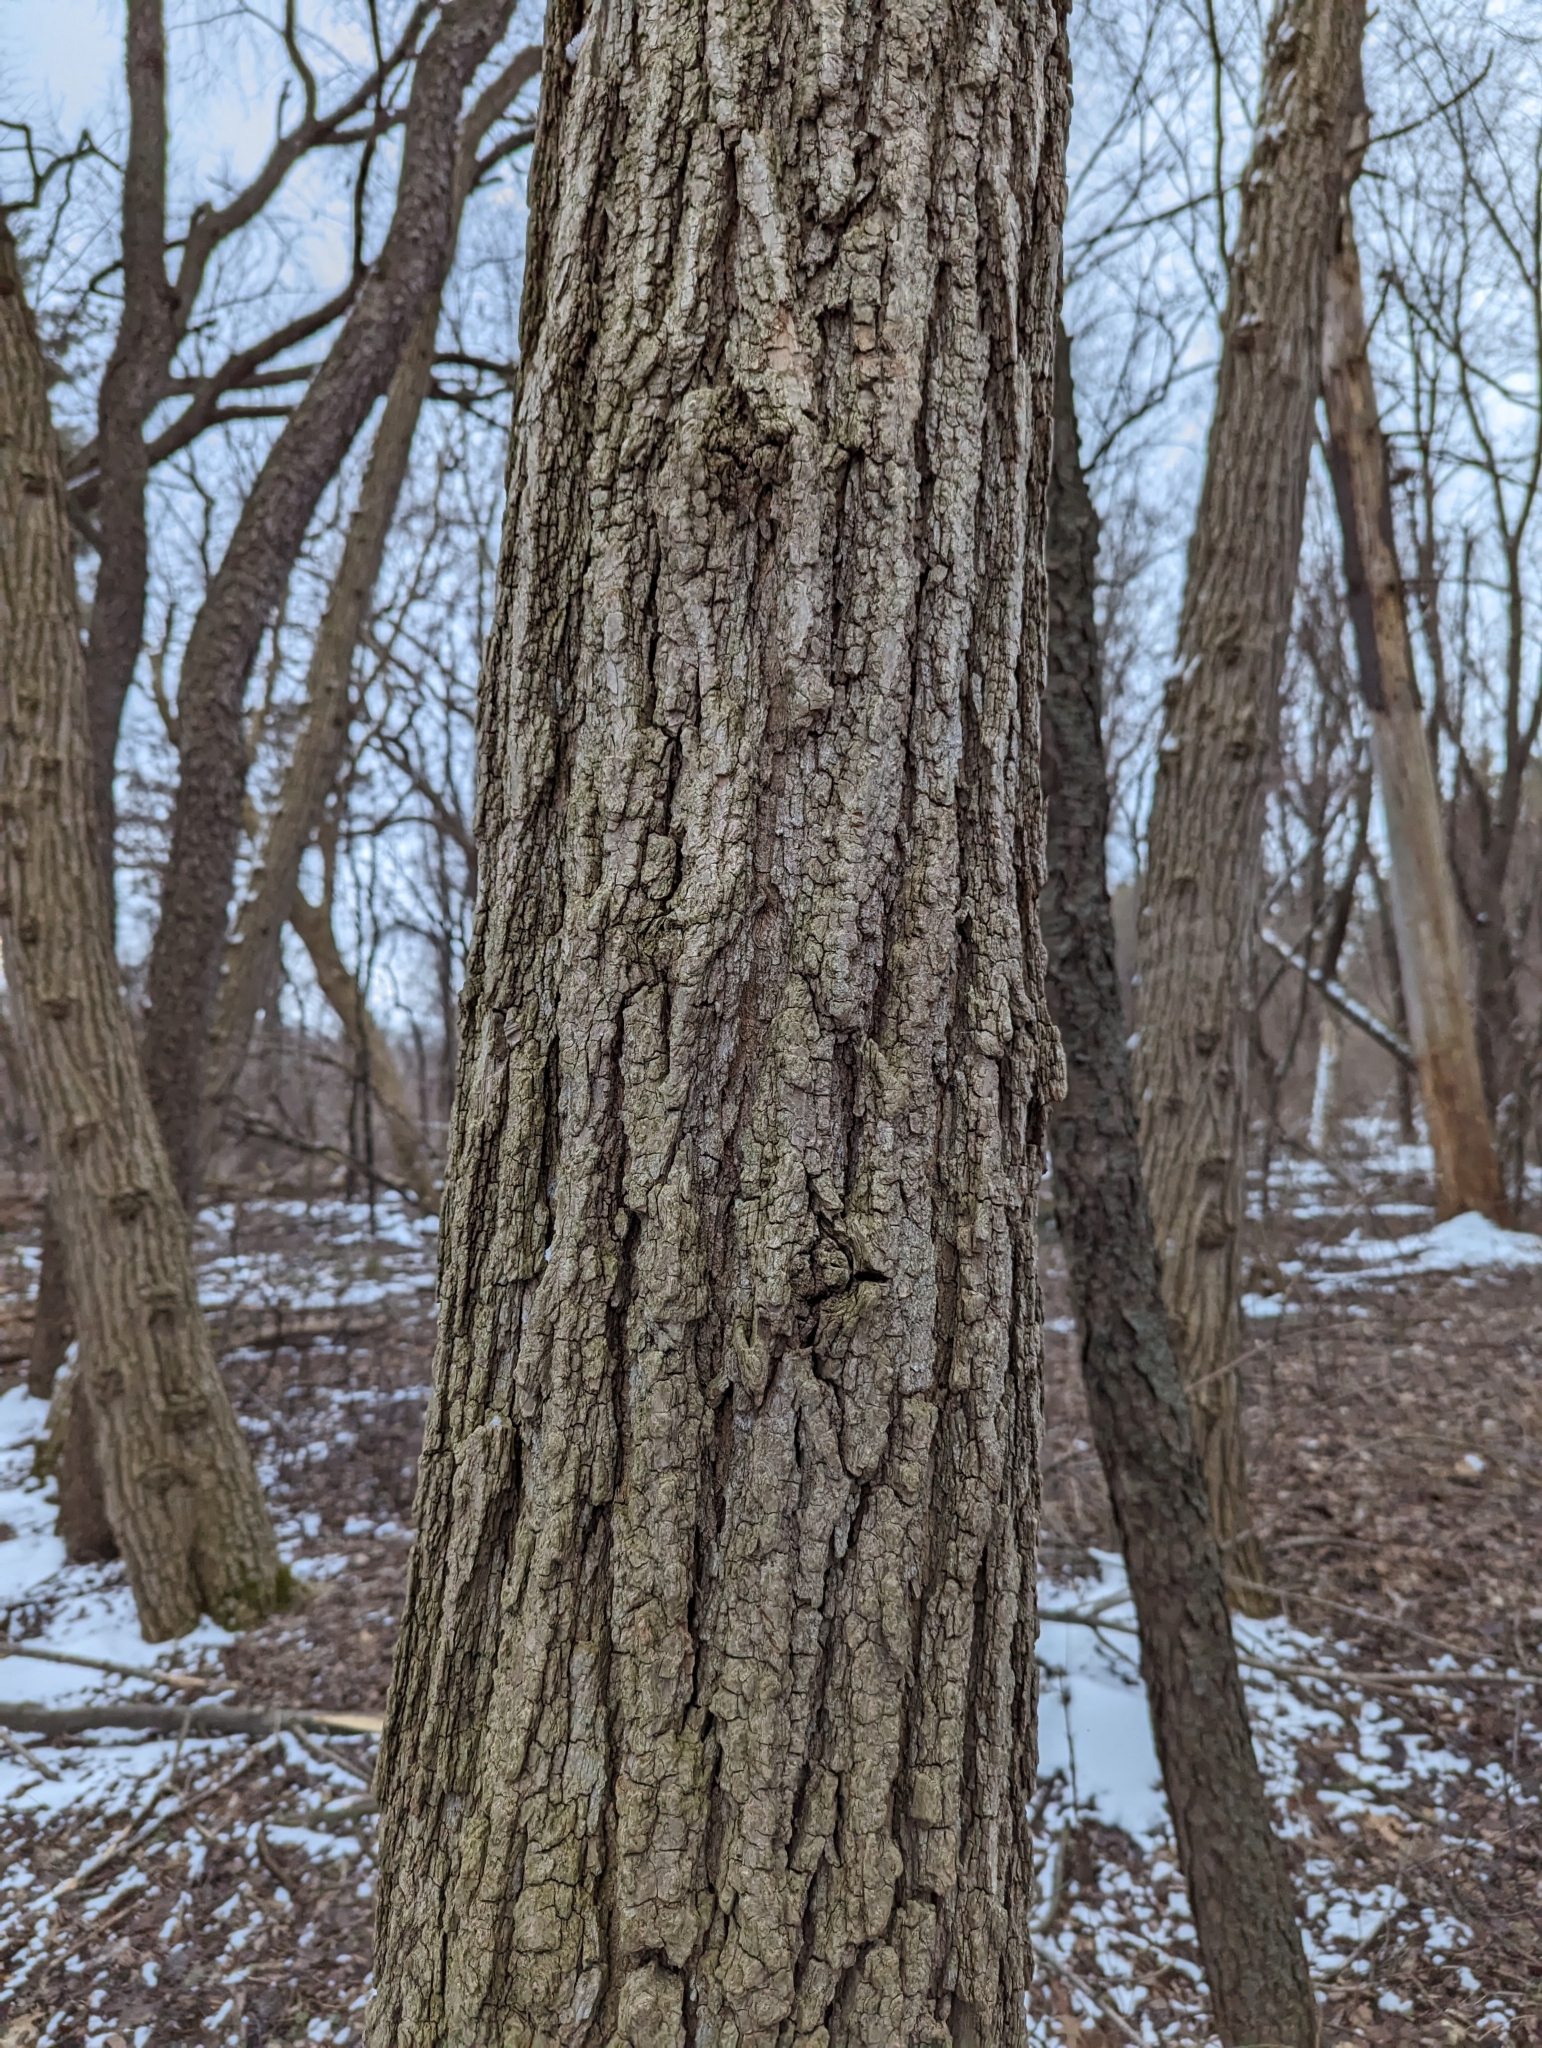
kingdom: Plantae
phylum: Tracheophyta
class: Magnoliopsida
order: Fabales
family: Fabaceae
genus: Robinia
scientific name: Robinia pseudoacacia
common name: Black locust
